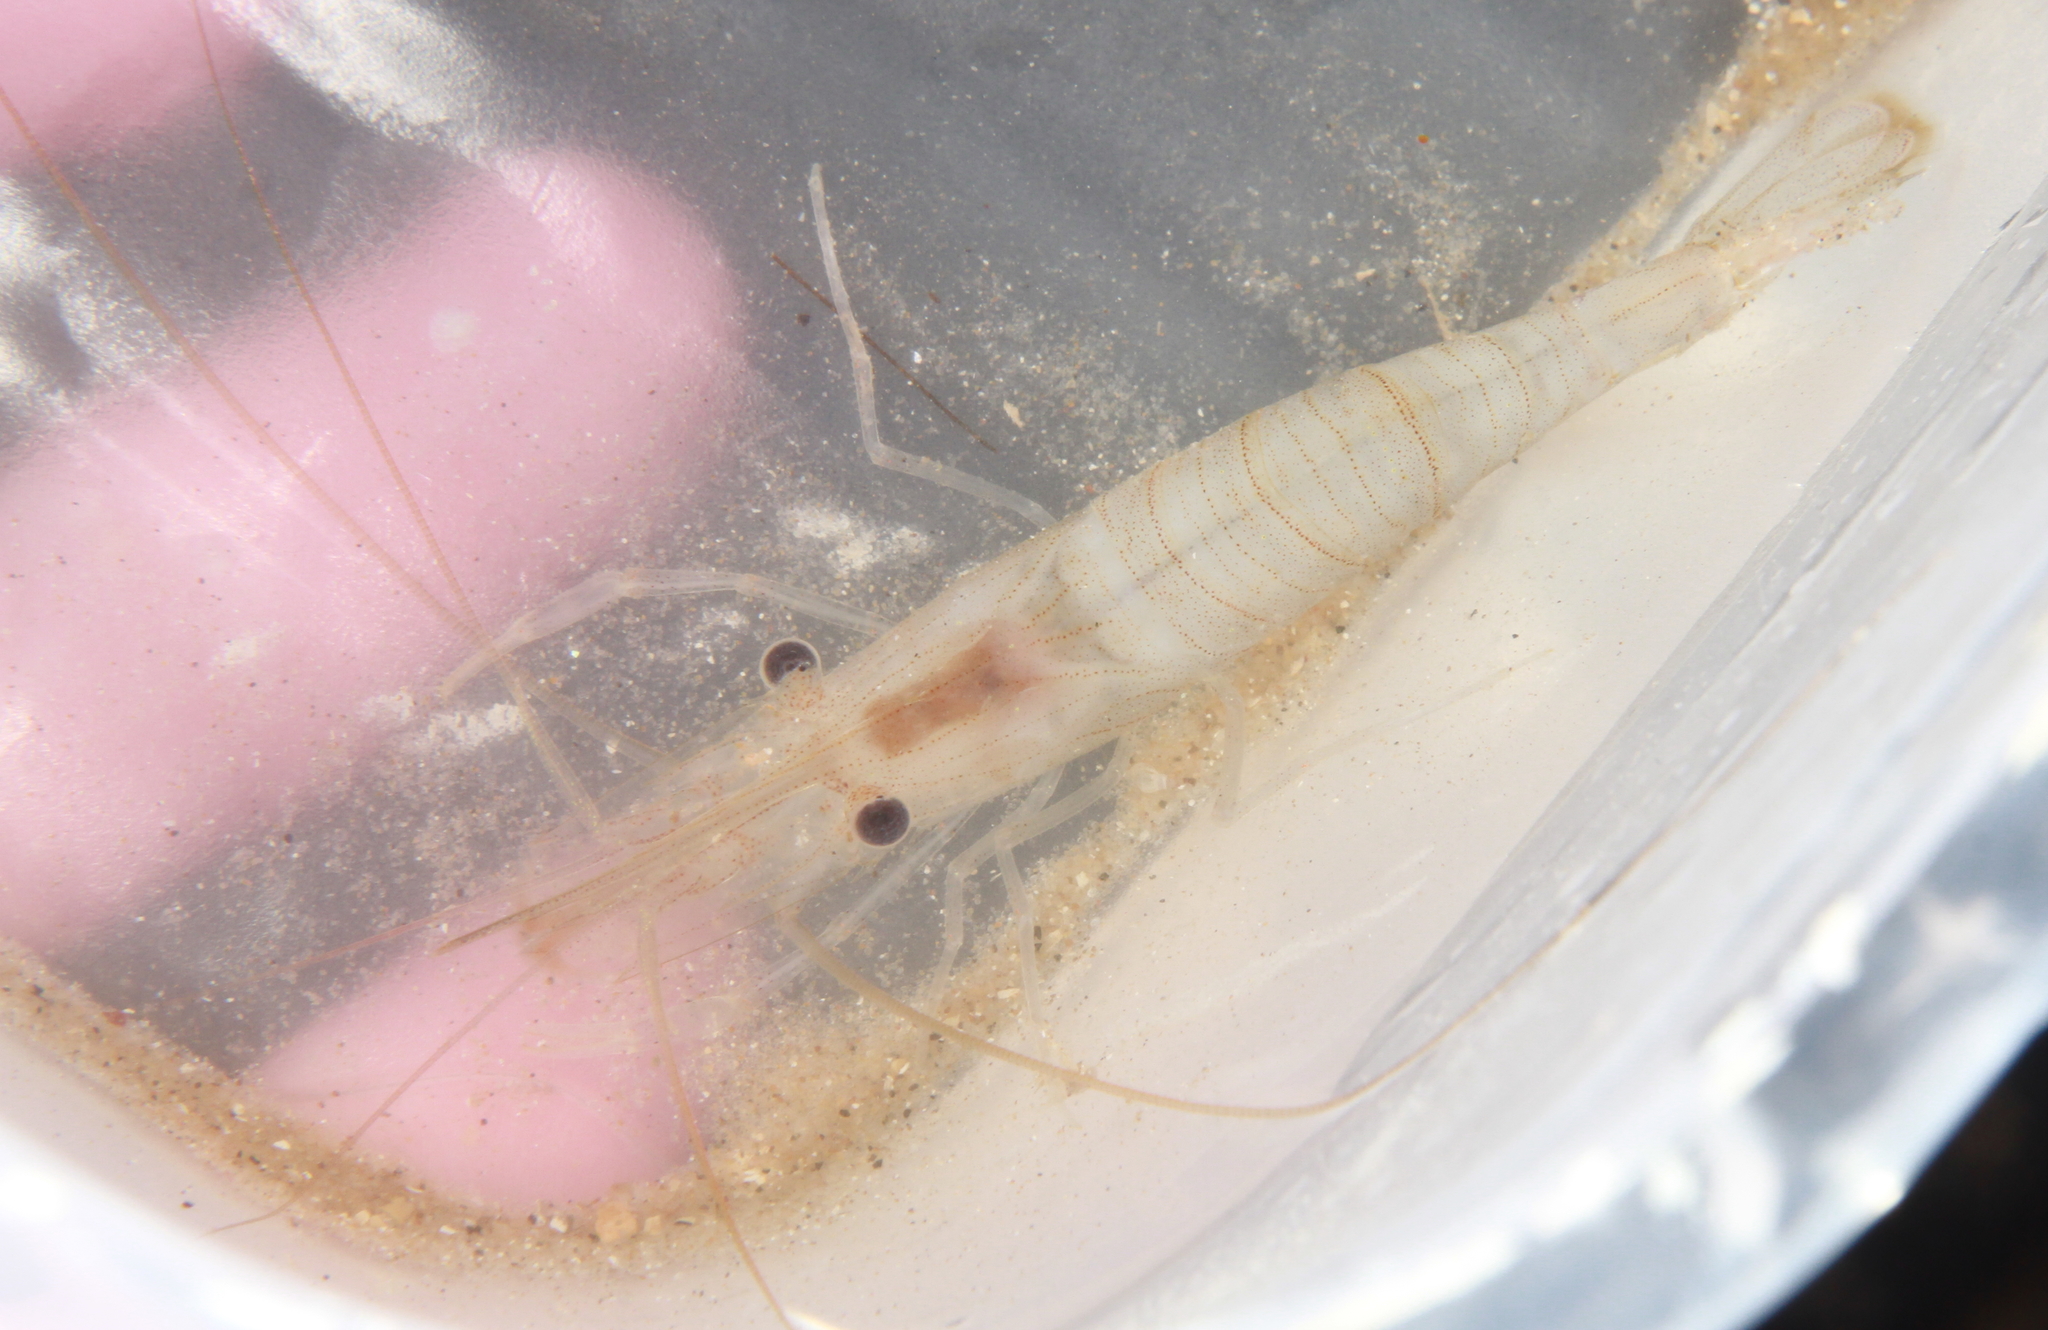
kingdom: Animalia
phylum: Arthropoda
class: Malacostraca
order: Decapoda
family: Palaemonidae
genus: Palaemon
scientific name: Palaemon serratus
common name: Common prawn
